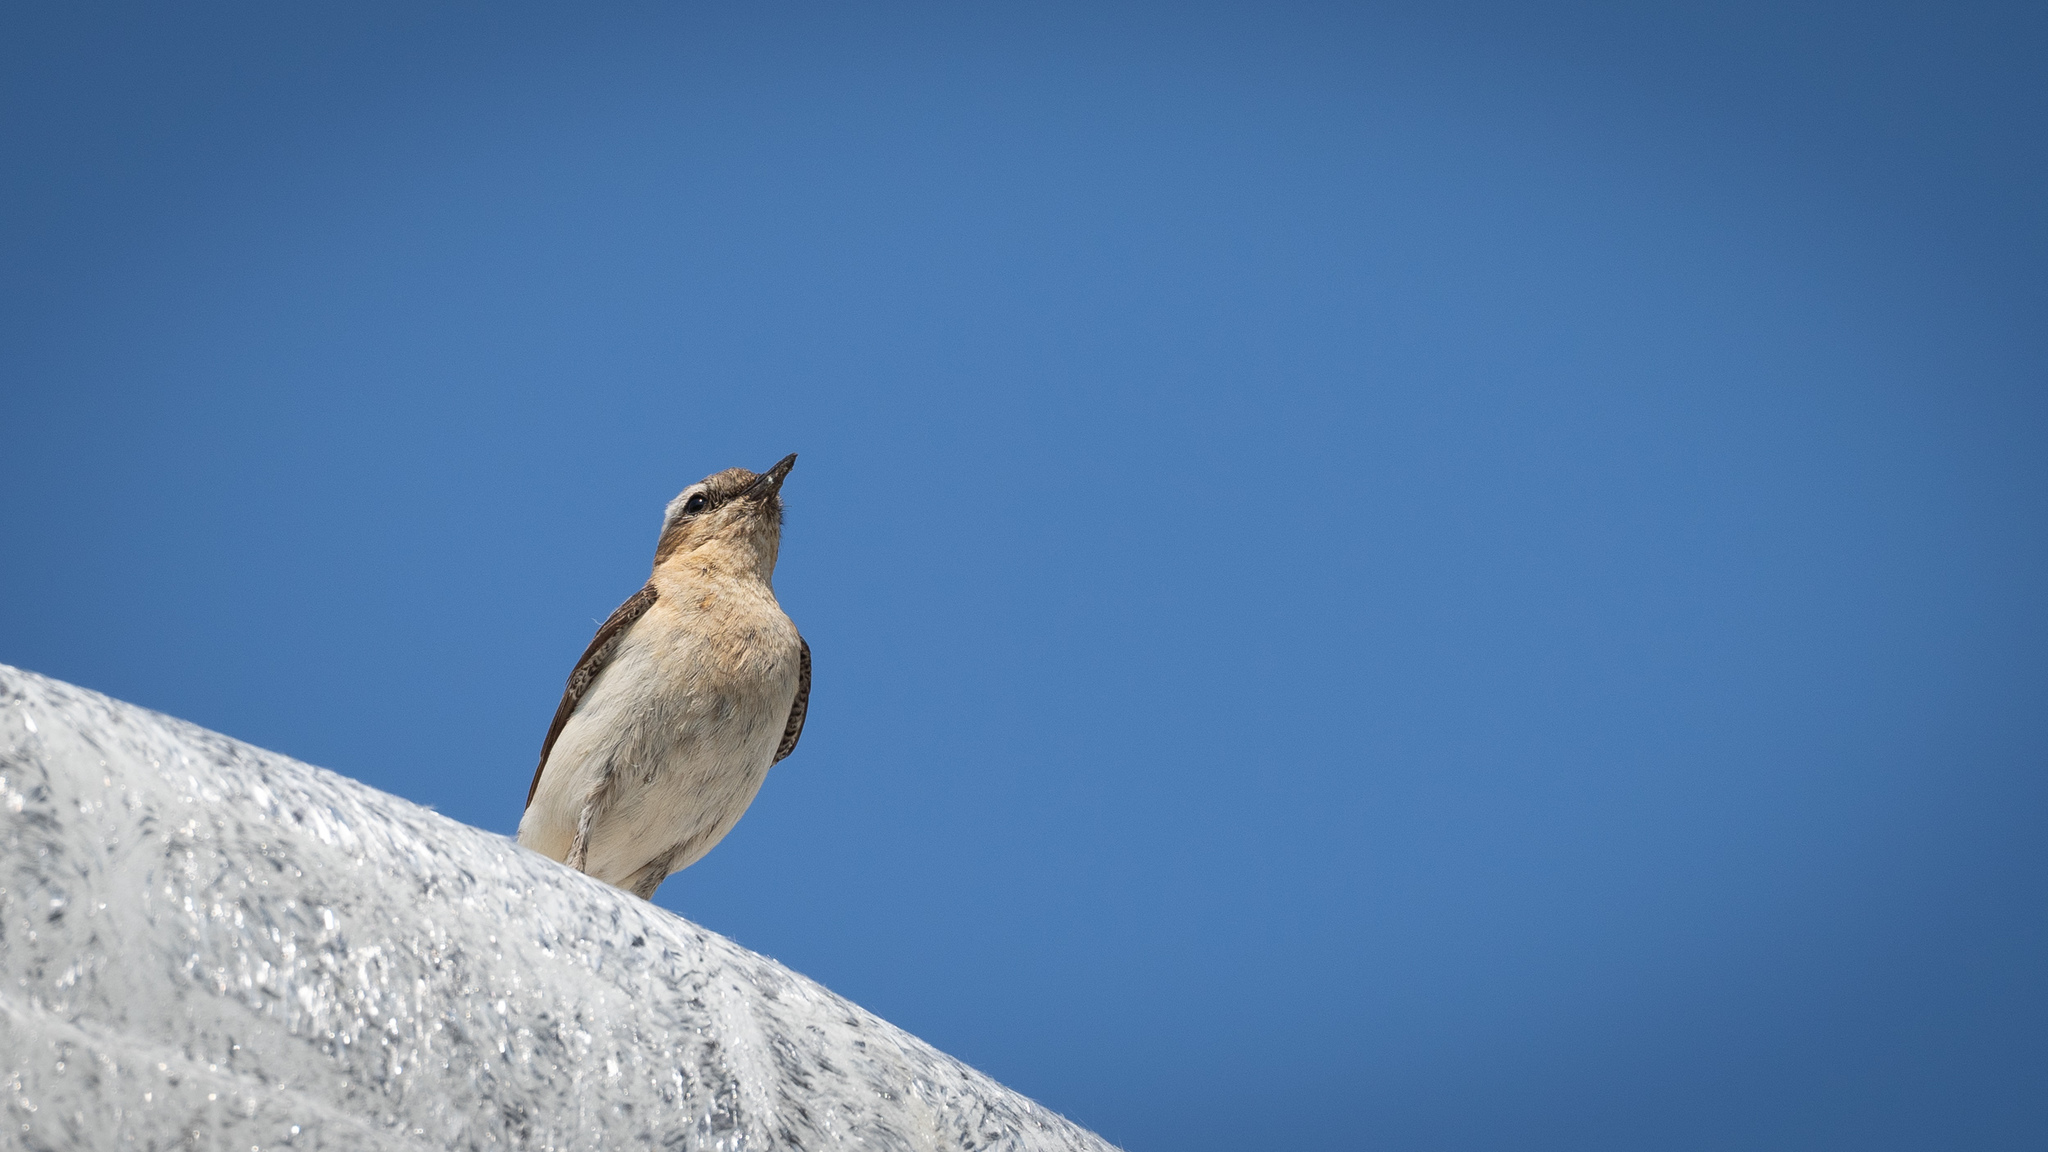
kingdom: Animalia
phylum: Chordata
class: Aves
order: Passeriformes
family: Muscicapidae
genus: Oenanthe
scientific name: Oenanthe oenanthe
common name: Northern wheatear
